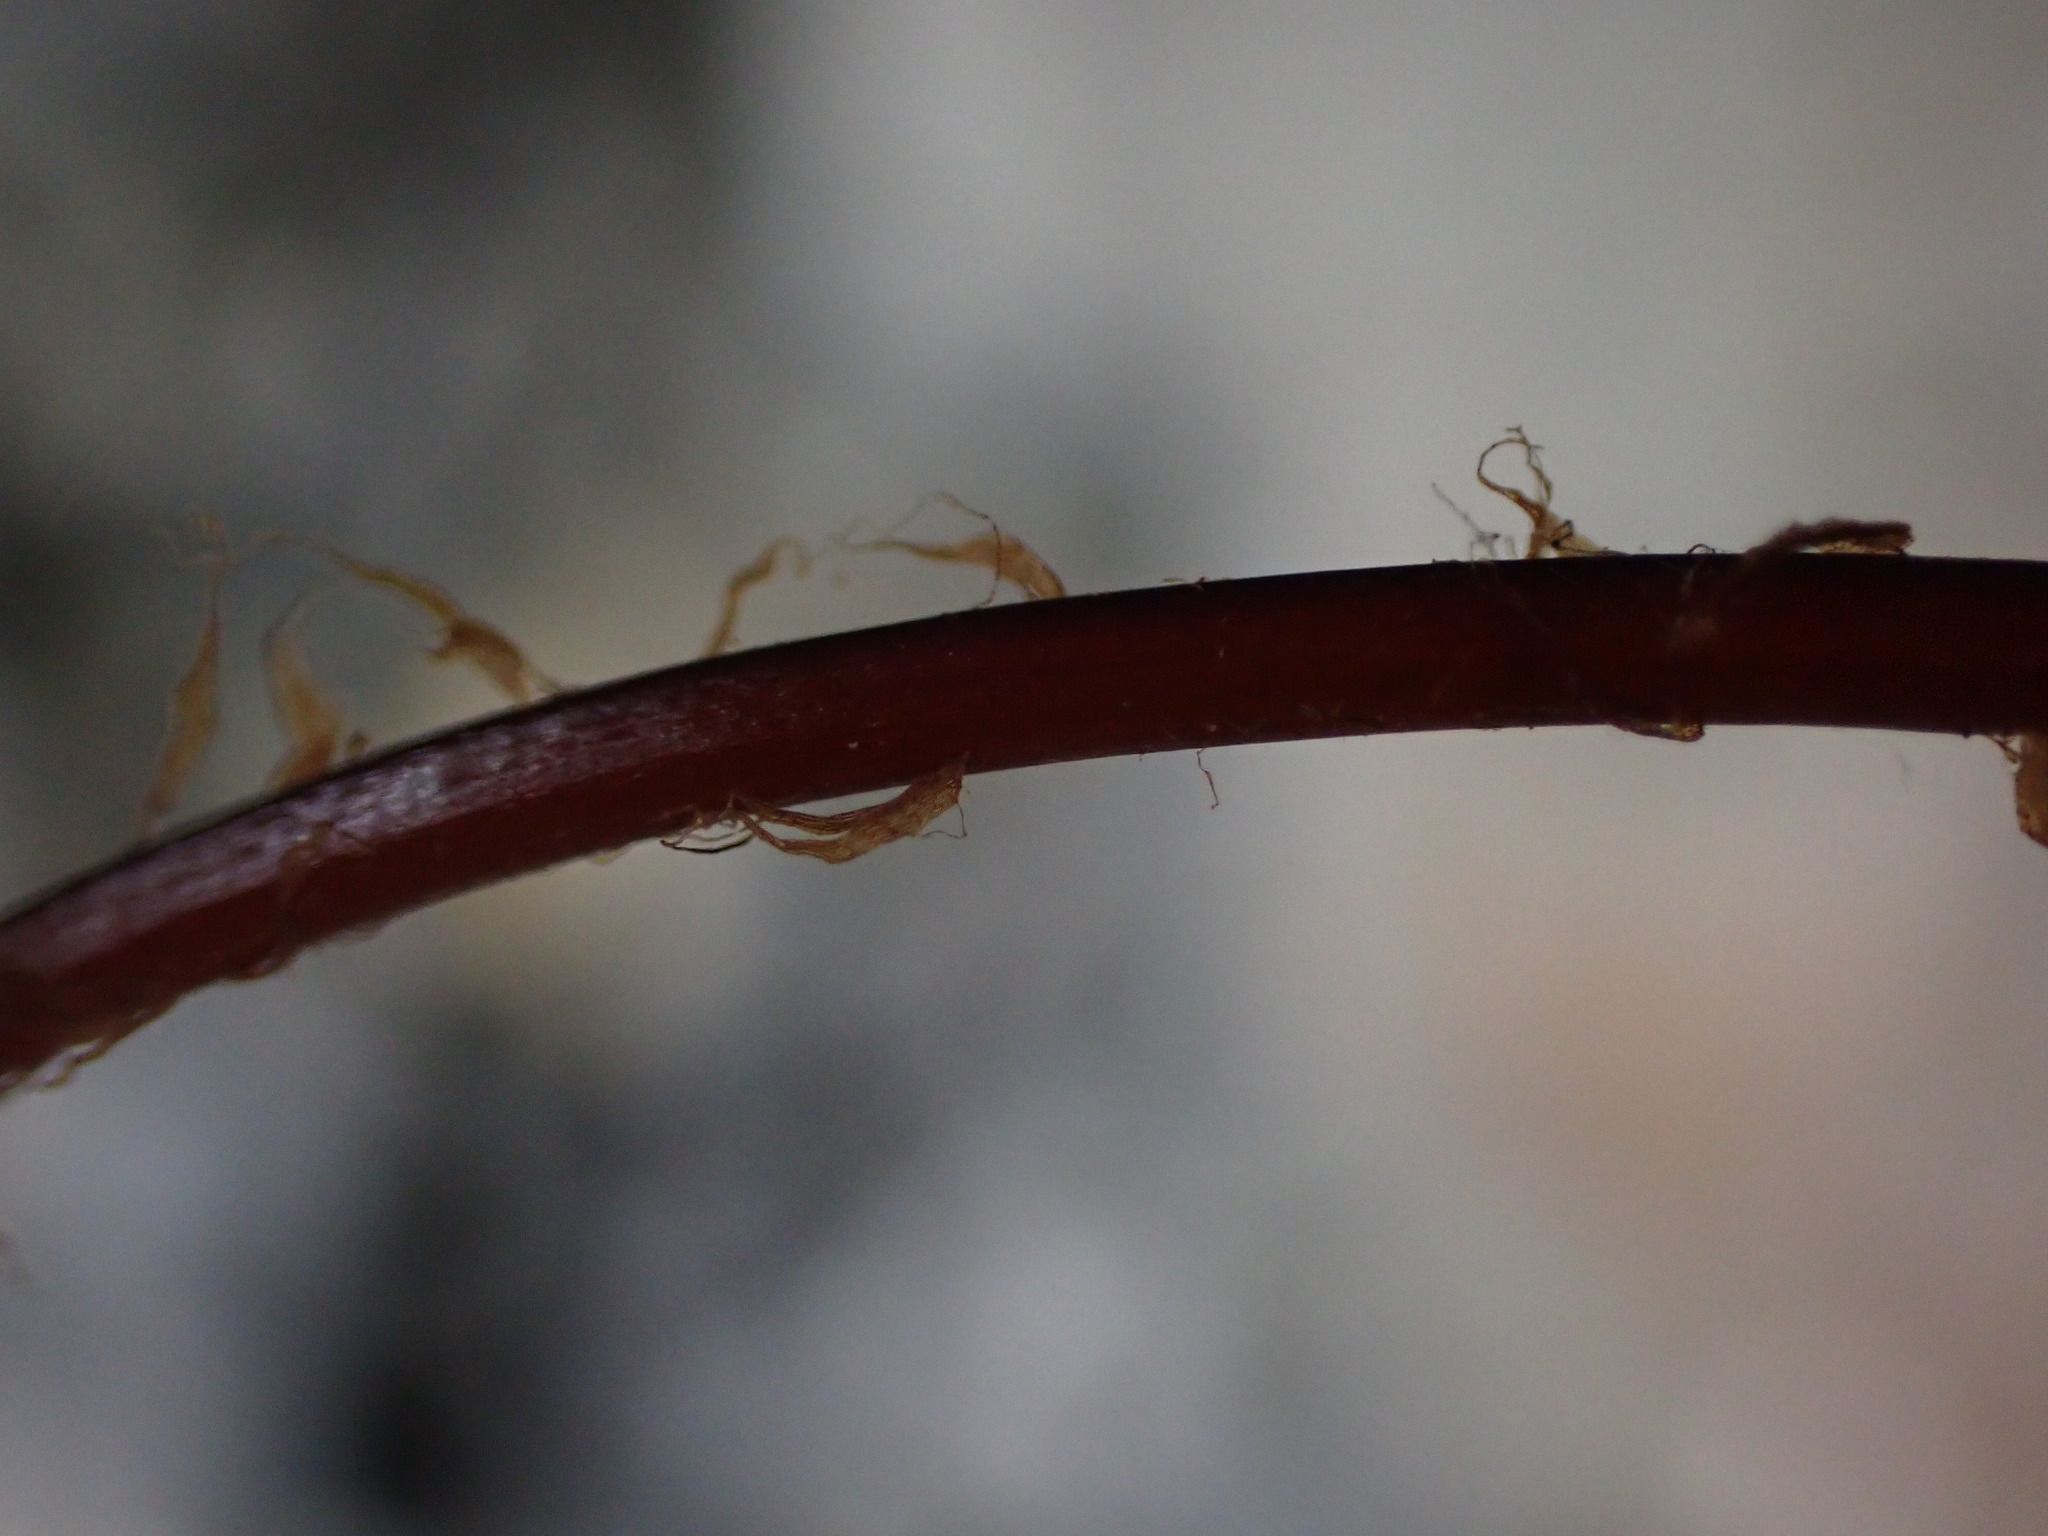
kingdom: Plantae
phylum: Tracheophyta
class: Polypodiopsida
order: Polypodiales
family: Cystopteridaceae
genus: Cystopteris
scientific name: Cystopteris fragilis
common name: Brittle bladder fern
